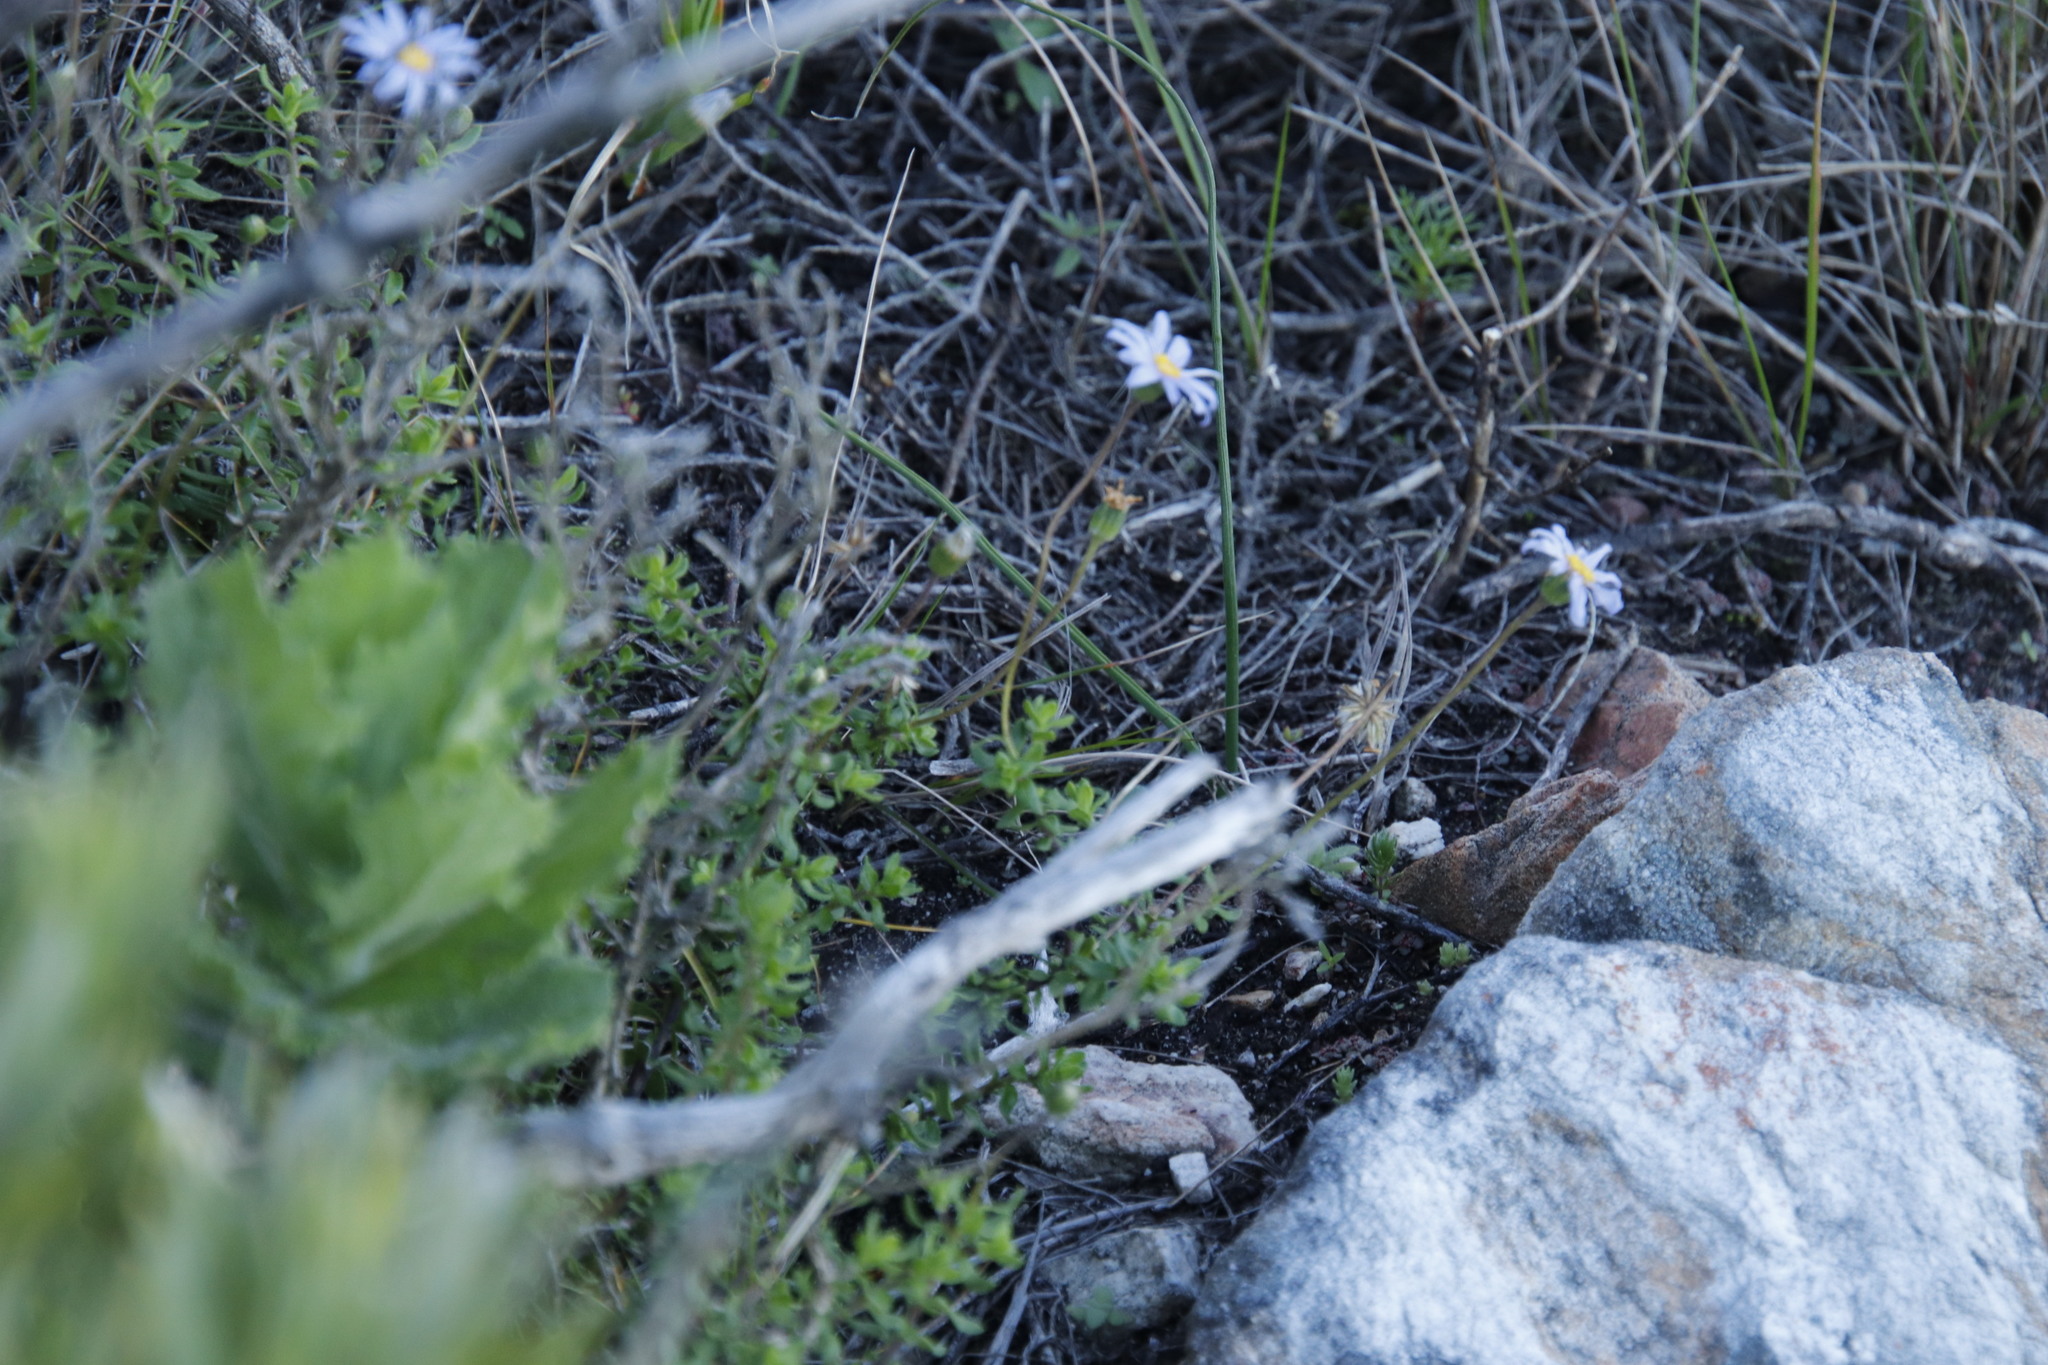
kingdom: Plantae
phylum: Tracheophyta
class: Magnoliopsida
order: Asterales
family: Asteraceae
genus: Felicia
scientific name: Felicia aethiopica
